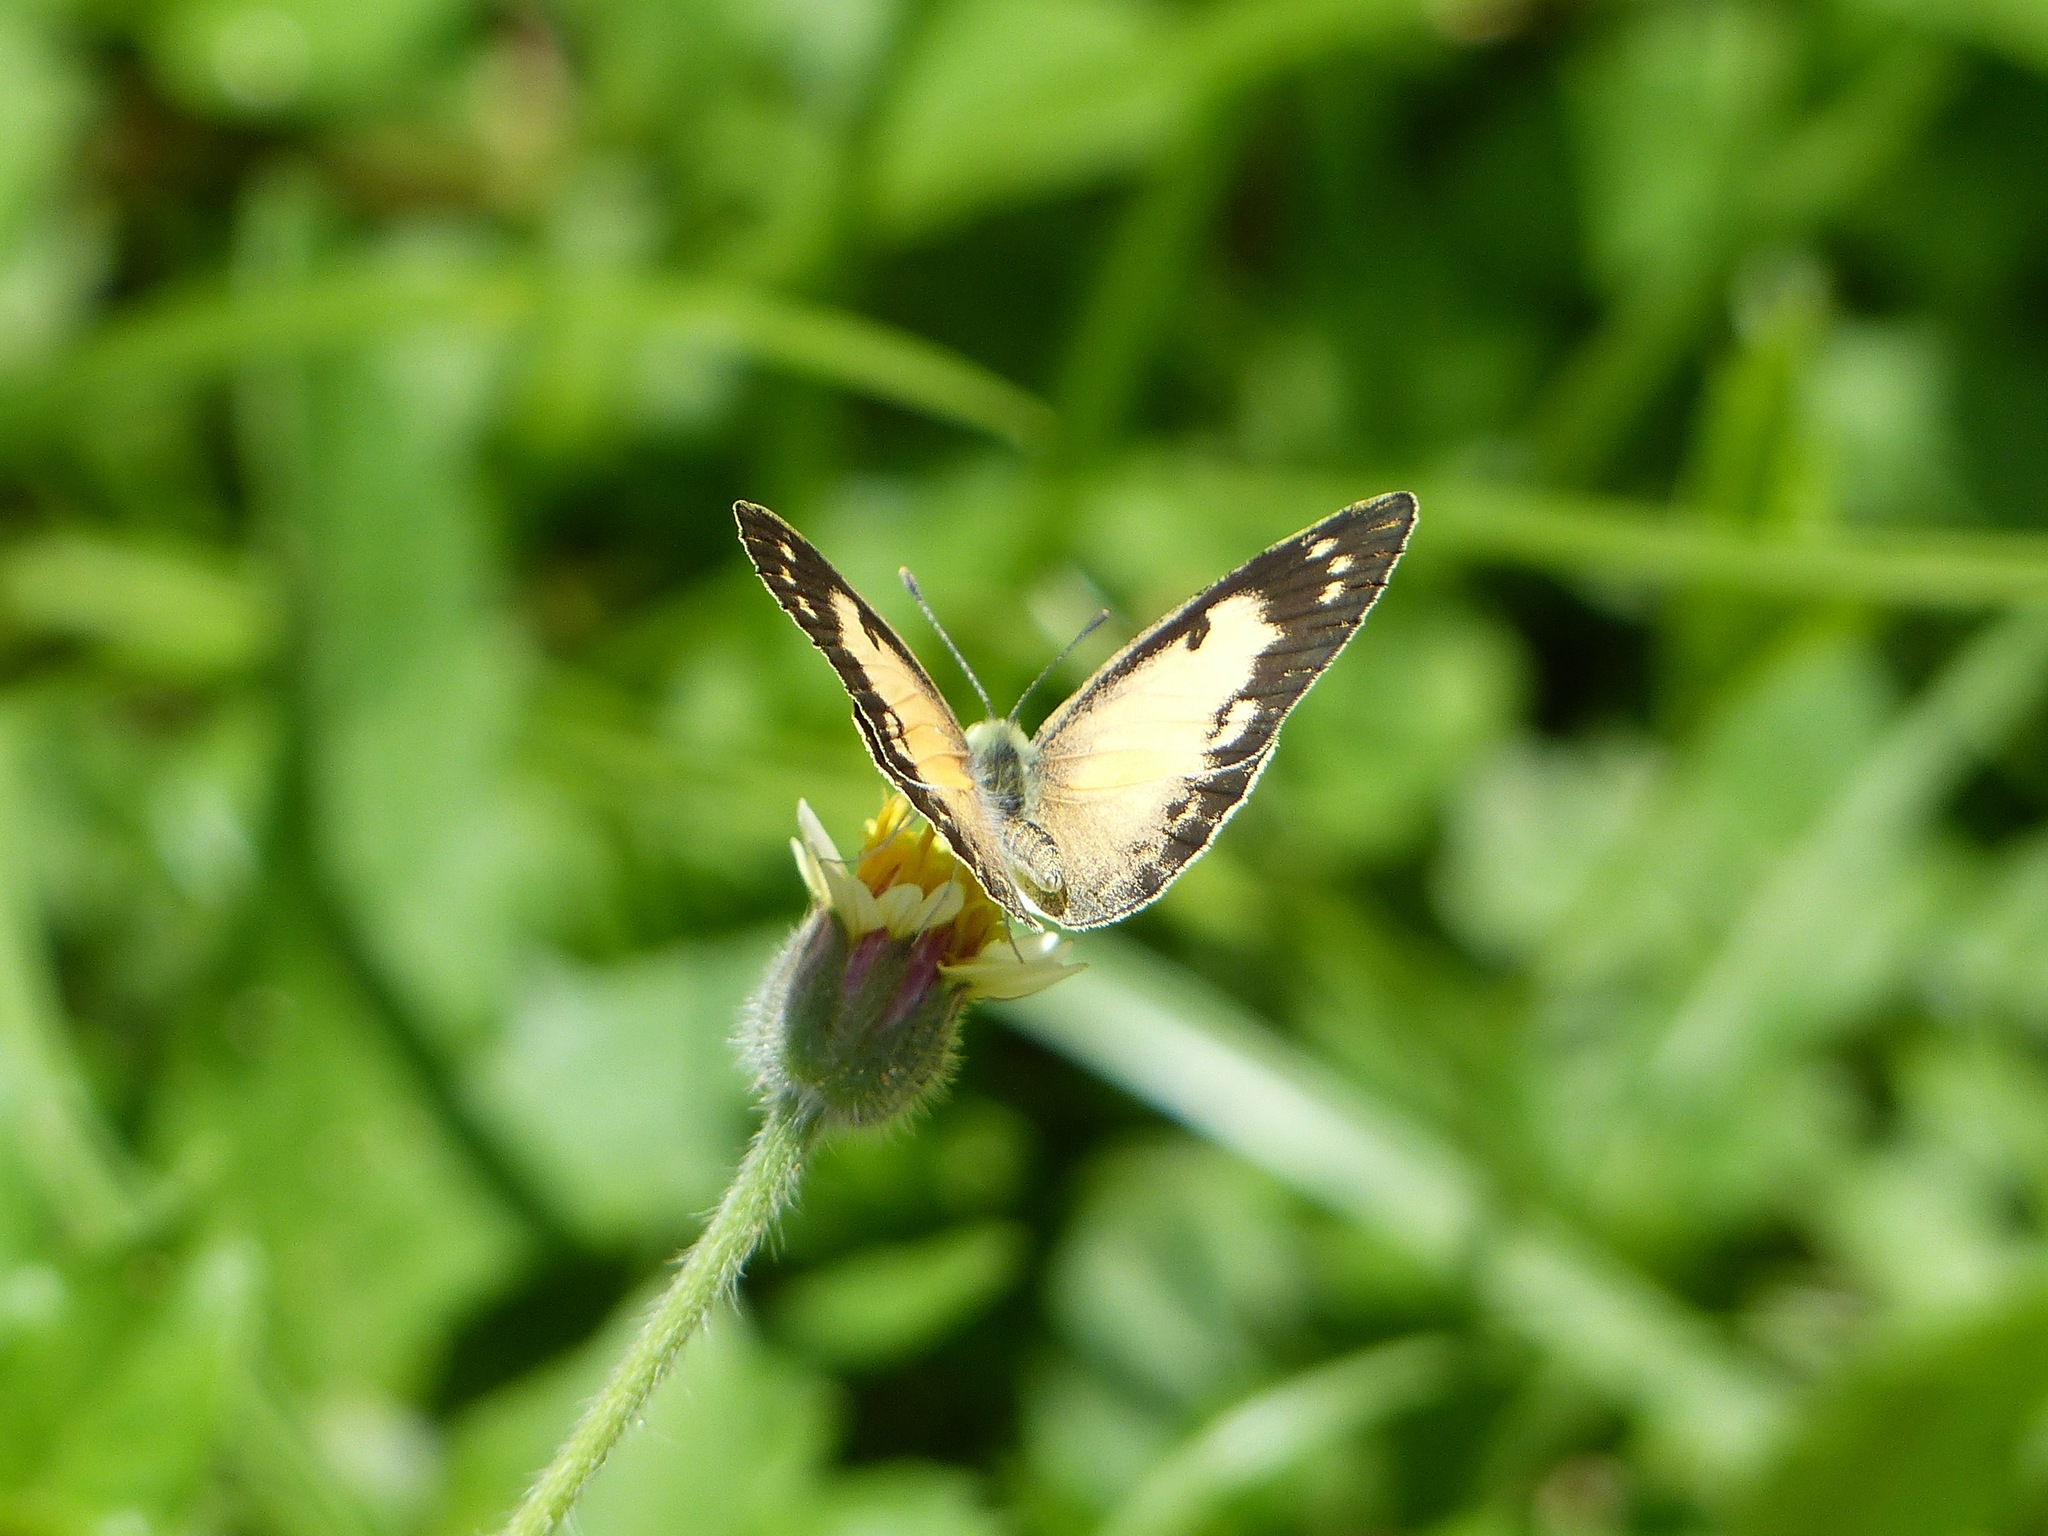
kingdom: Animalia
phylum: Arthropoda
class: Insecta
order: Lepidoptera
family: Pieridae
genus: Colotis
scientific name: Colotis amata
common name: Small salmon arab
